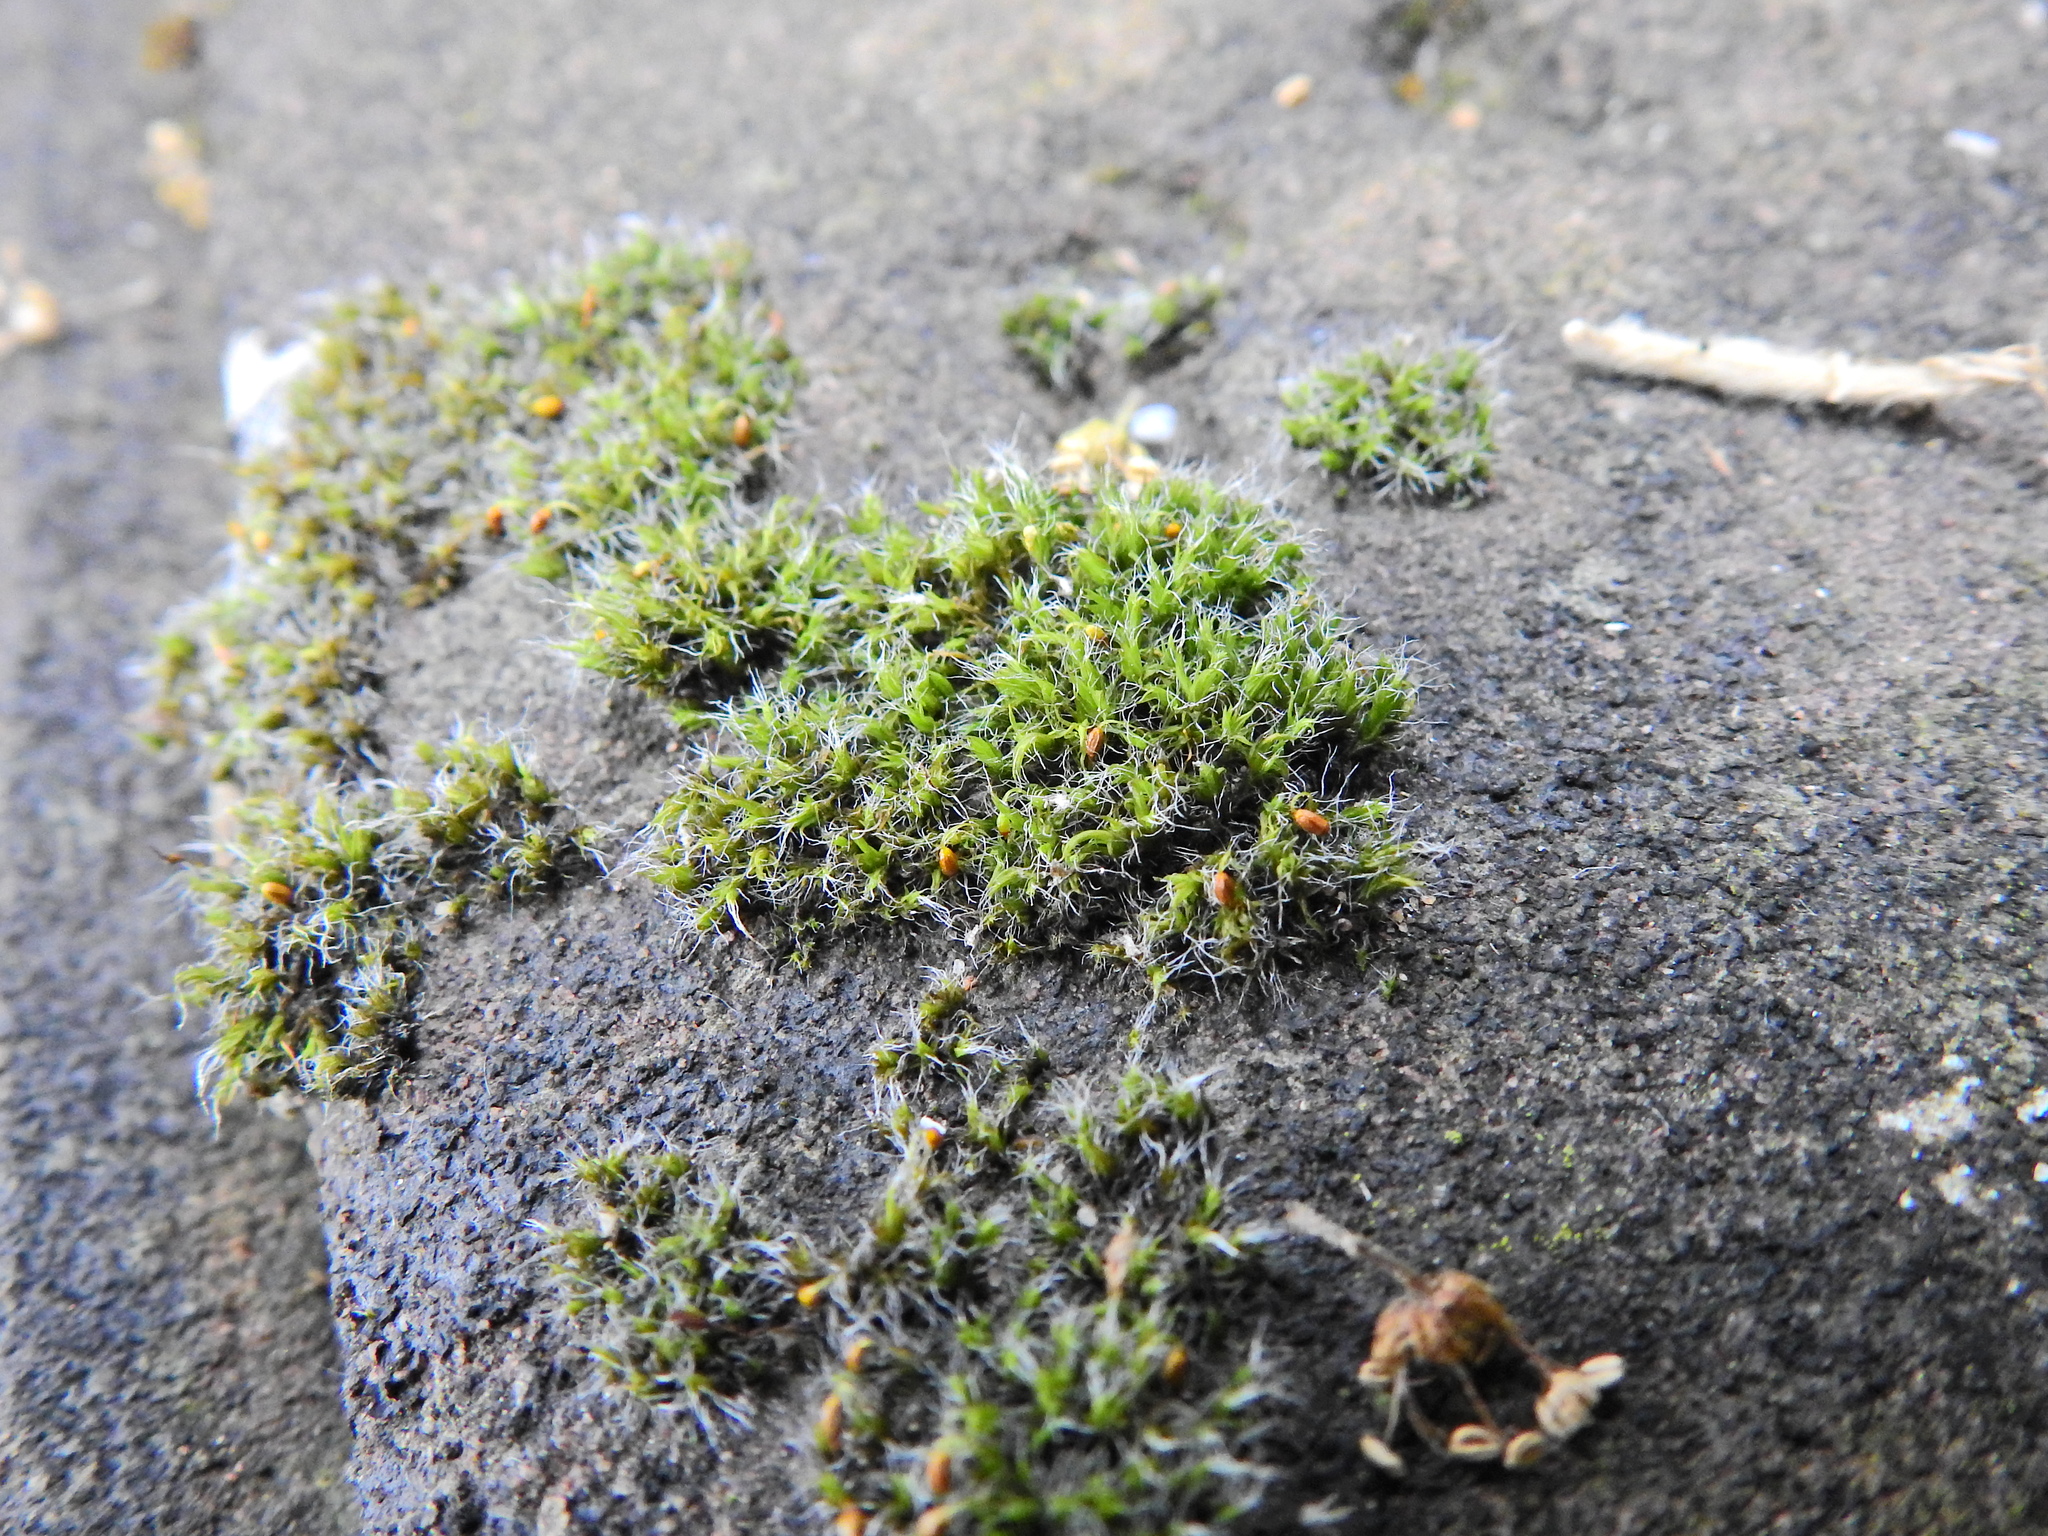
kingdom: Plantae
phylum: Bryophyta
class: Bryopsida
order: Grimmiales
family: Grimmiaceae
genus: Grimmia
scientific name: Grimmia pulvinata
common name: Grey-cushioned grimmia
